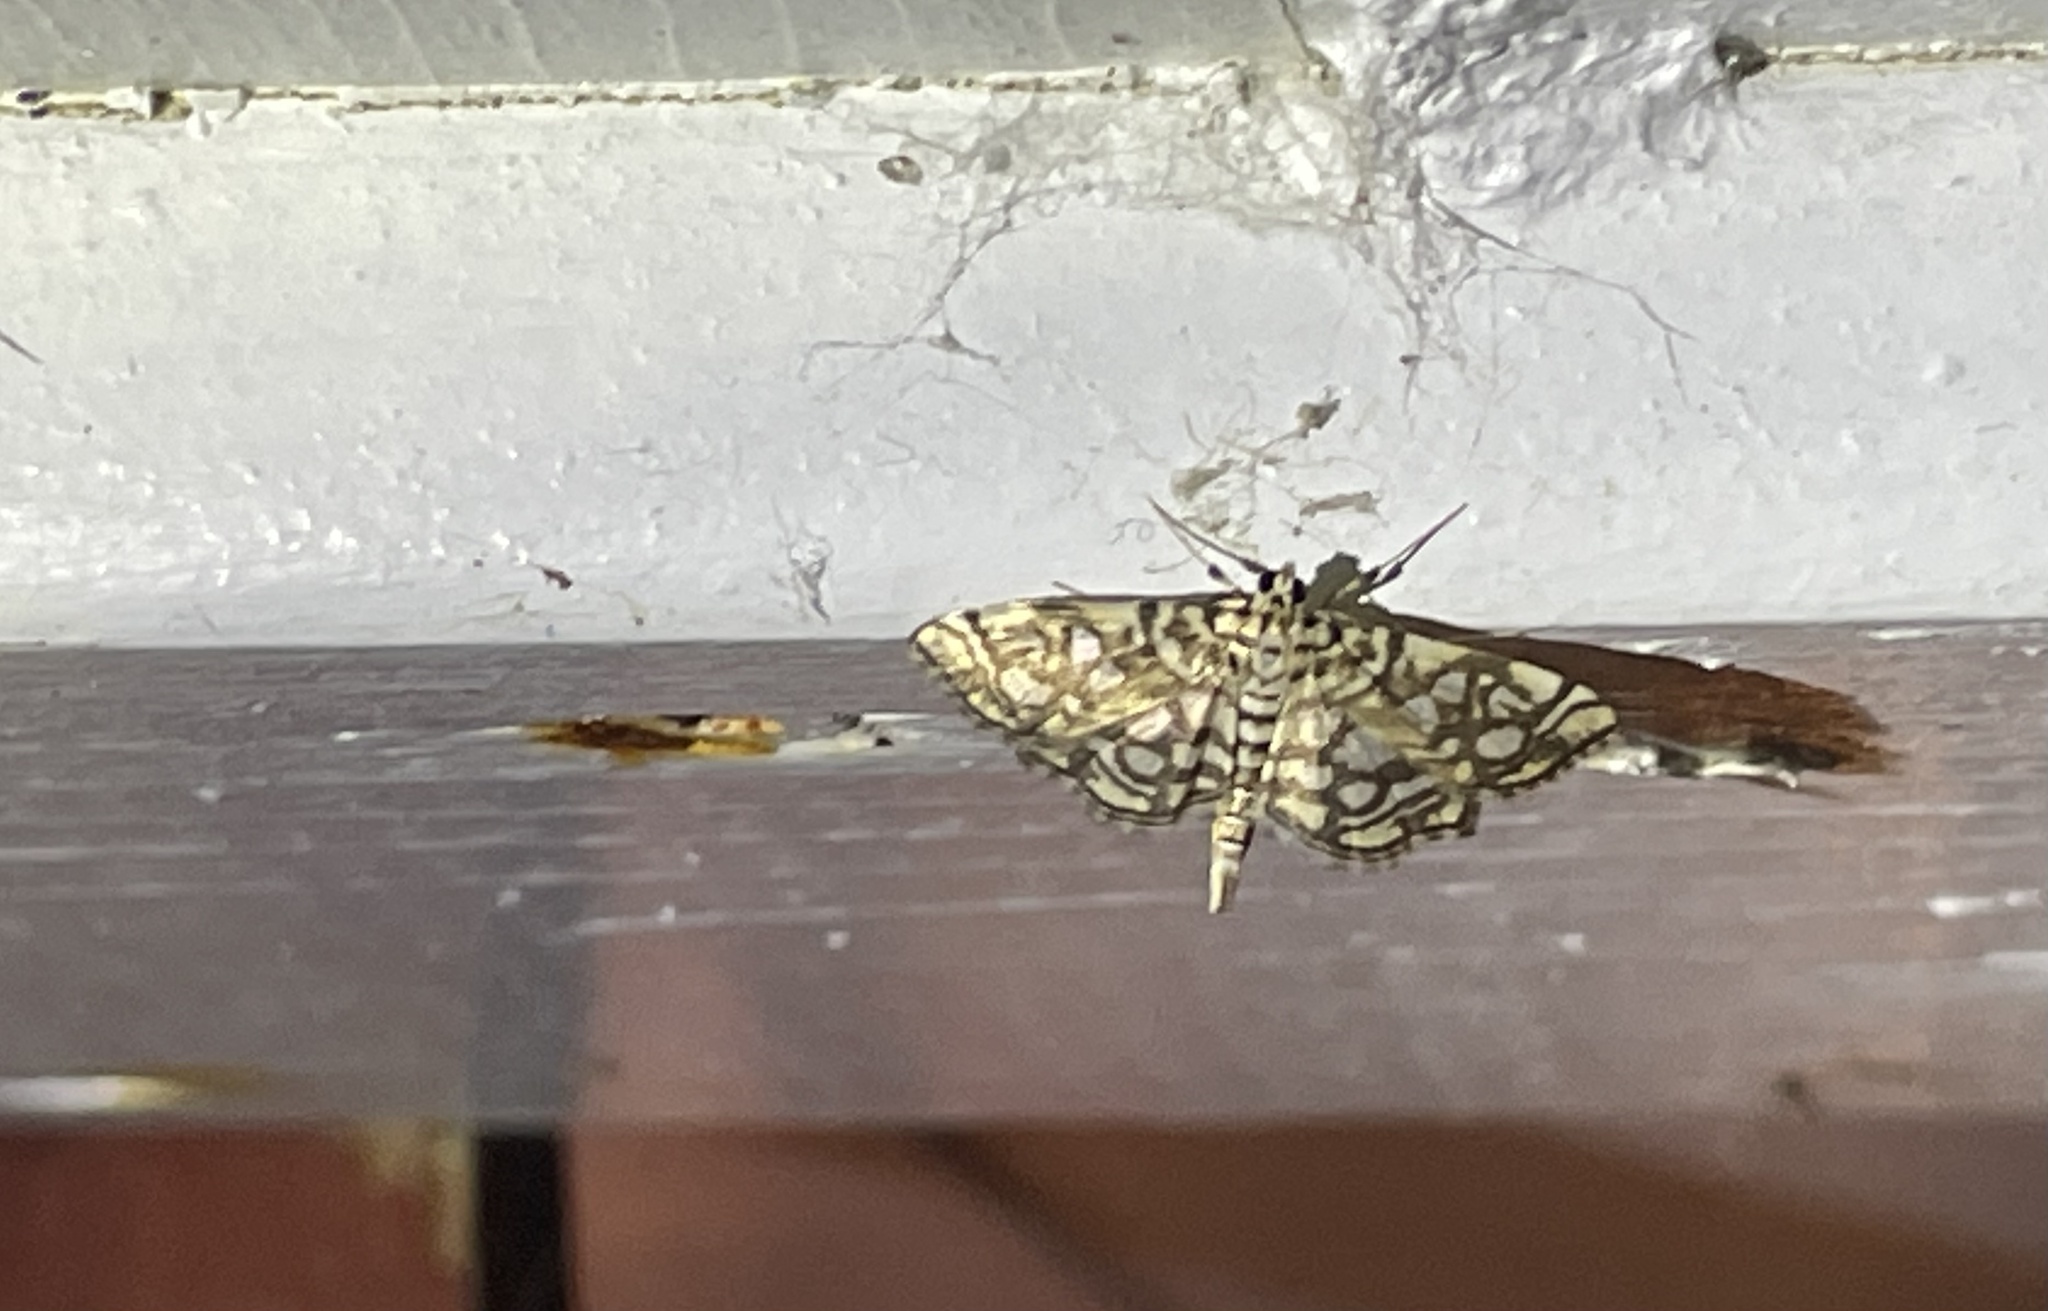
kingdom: Animalia
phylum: Arthropoda
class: Insecta
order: Lepidoptera
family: Crambidae
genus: Lygropia
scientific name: Lygropia rivulalis
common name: Bog lygropia moth
